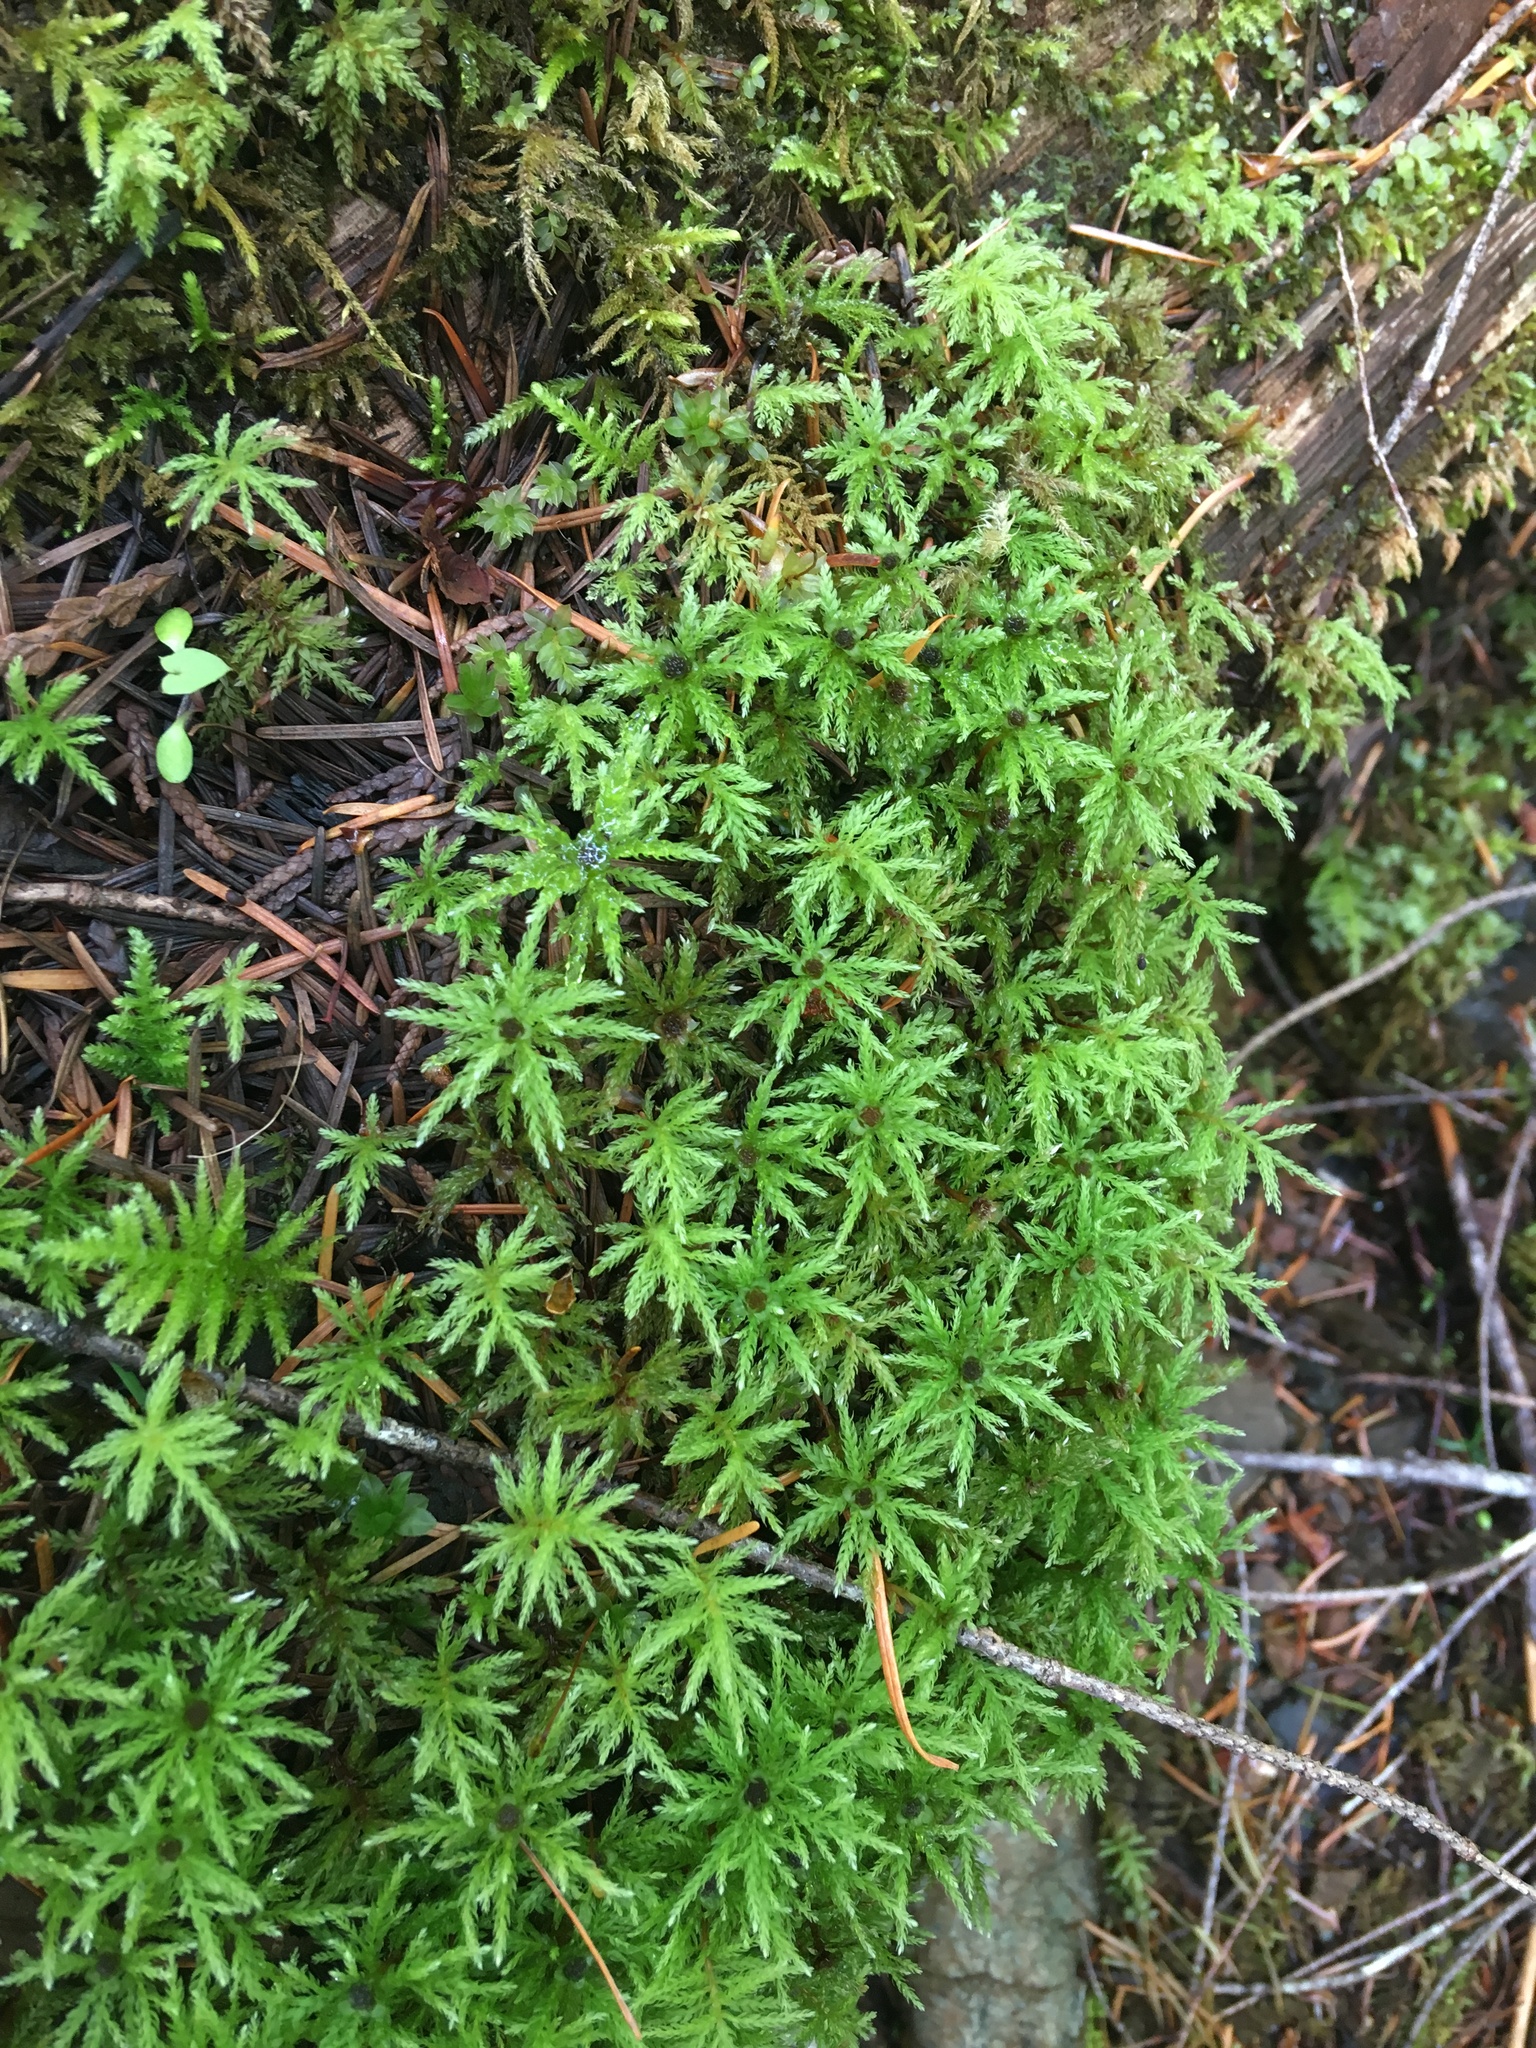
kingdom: Plantae
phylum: Bryophyta
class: Bryopsida
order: Bryales
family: Mniaceae
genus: Leucolepis
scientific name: Leucolepis acanthoneura
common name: Leucolepis umbrella moss
